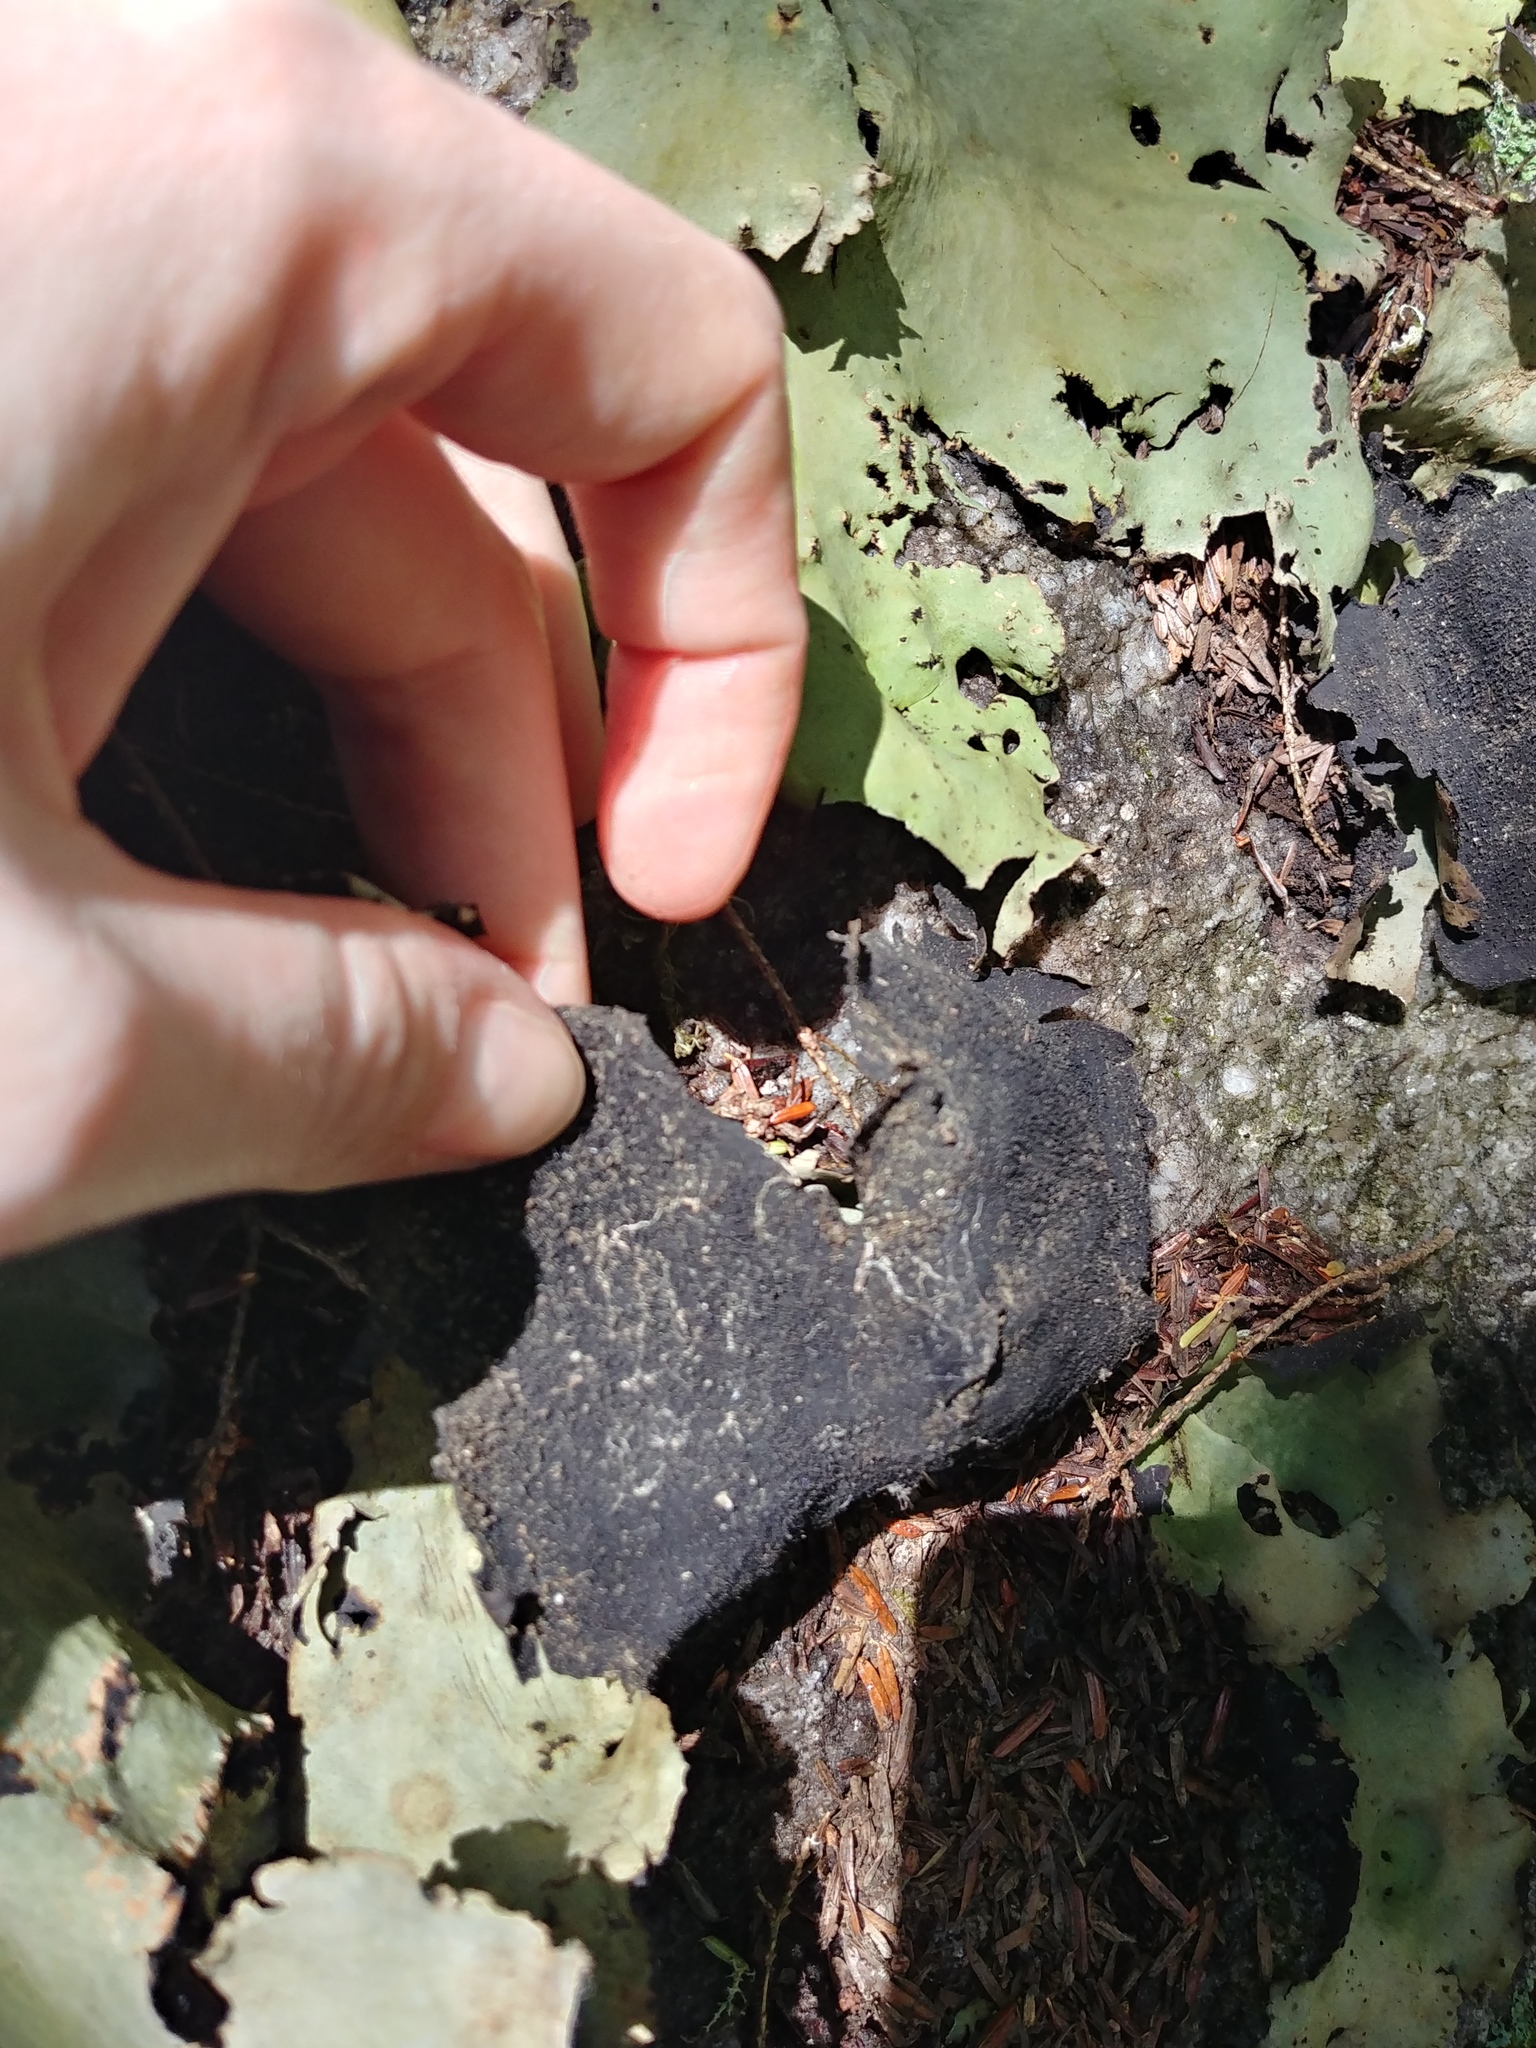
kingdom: Fungi
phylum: Ascomycota
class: Lecanoromycetes
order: Umbilicariales
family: Umbilicariaceae
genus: Umbilicaria
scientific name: Umbilicaria mammulata
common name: Smooth rock tripe
